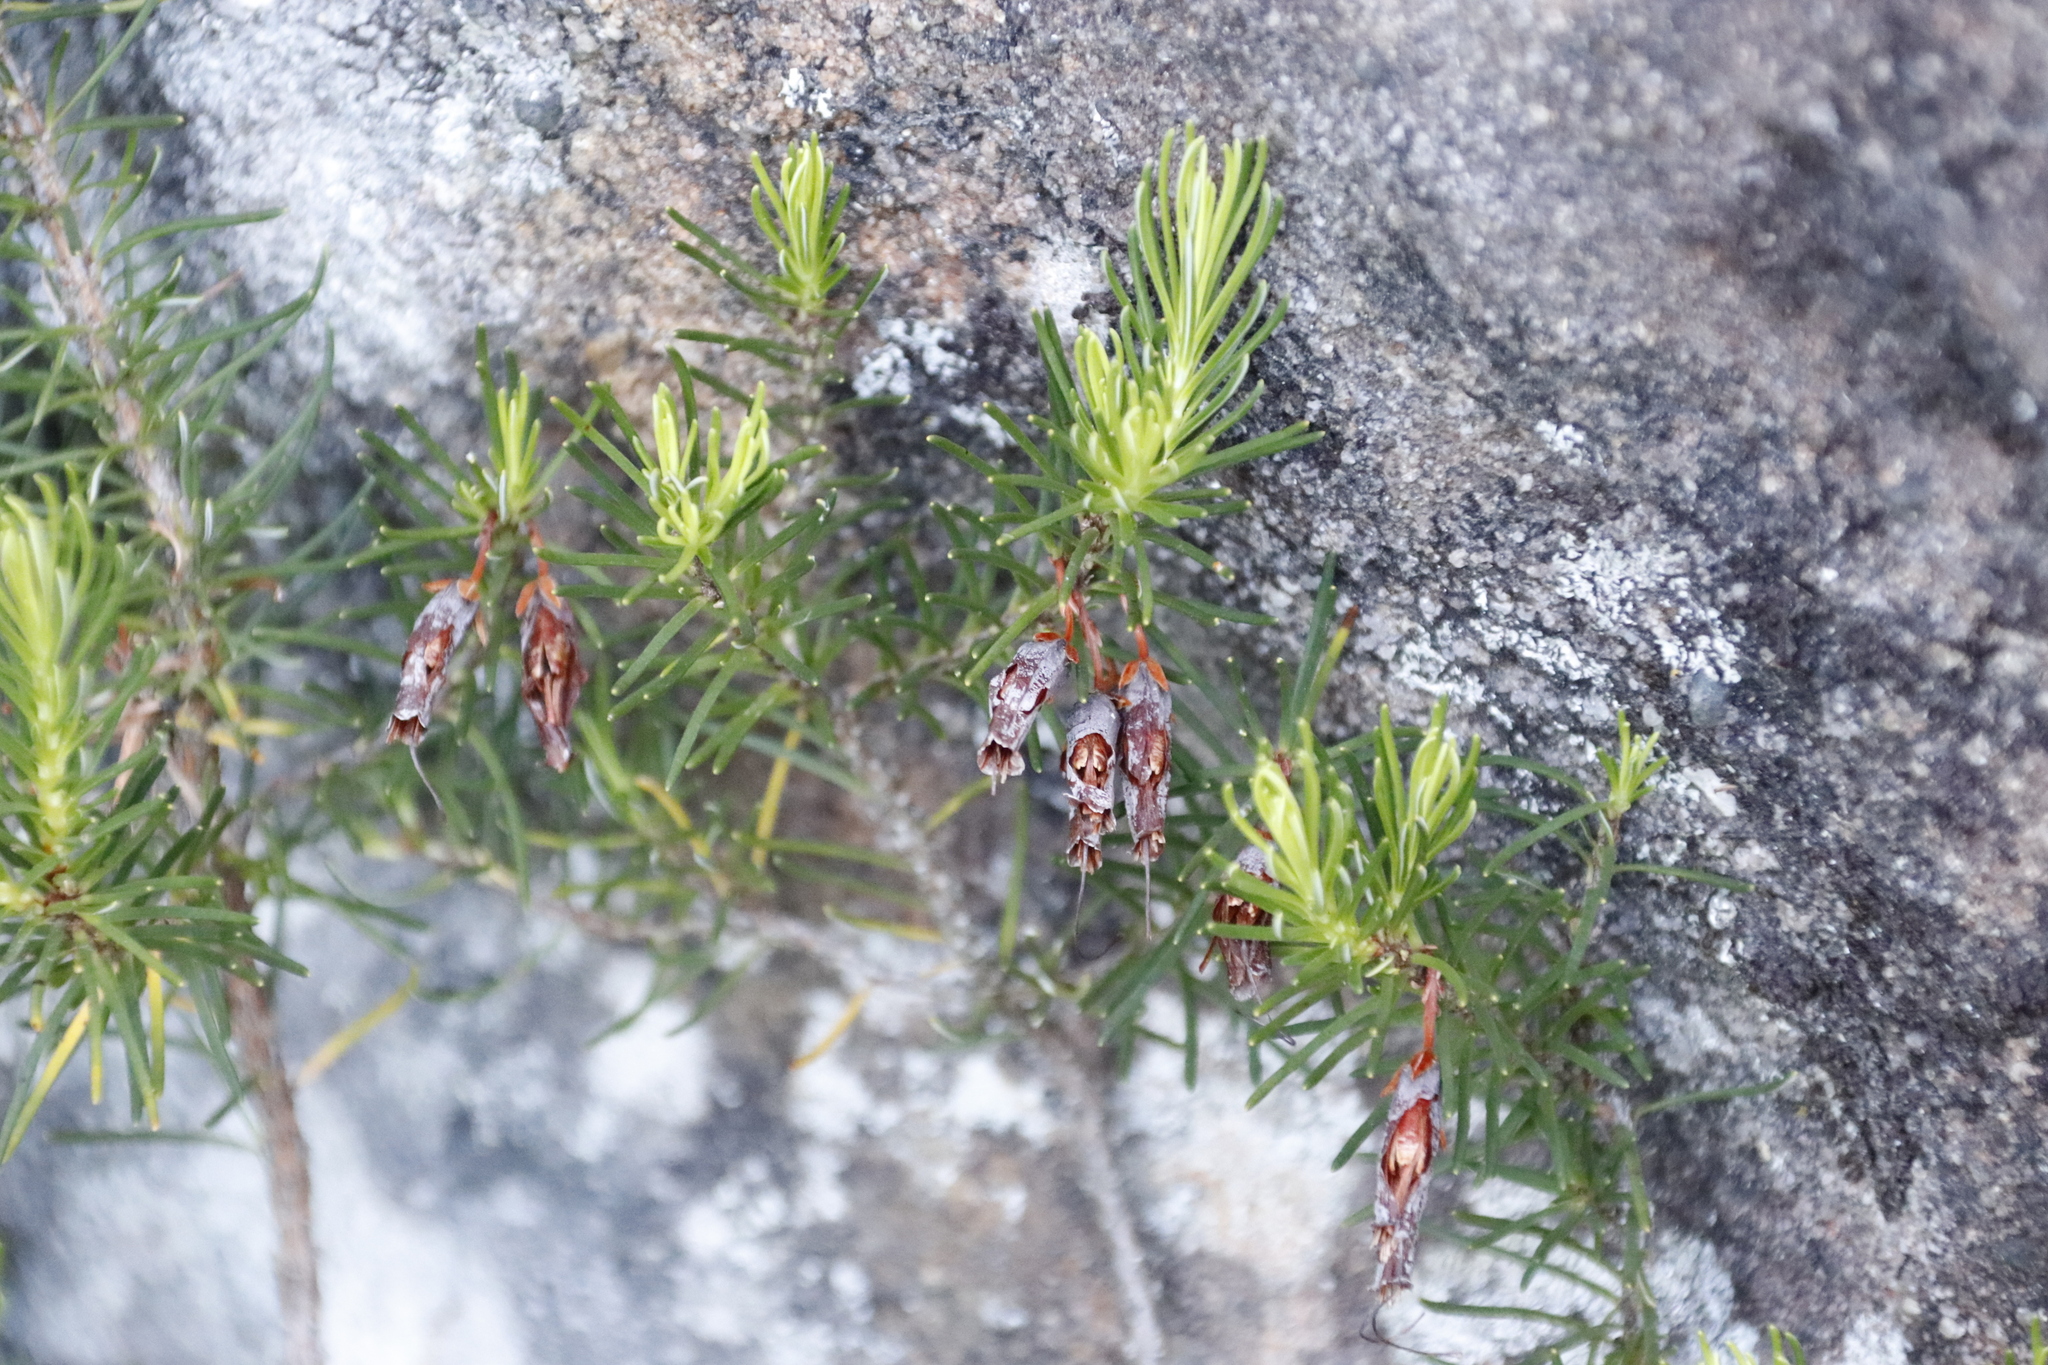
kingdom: Plantae
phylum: Tracheophyta
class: Magnoliopsida
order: Ericales
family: Ericaceae
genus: Erica
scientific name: Erica plukenetii
